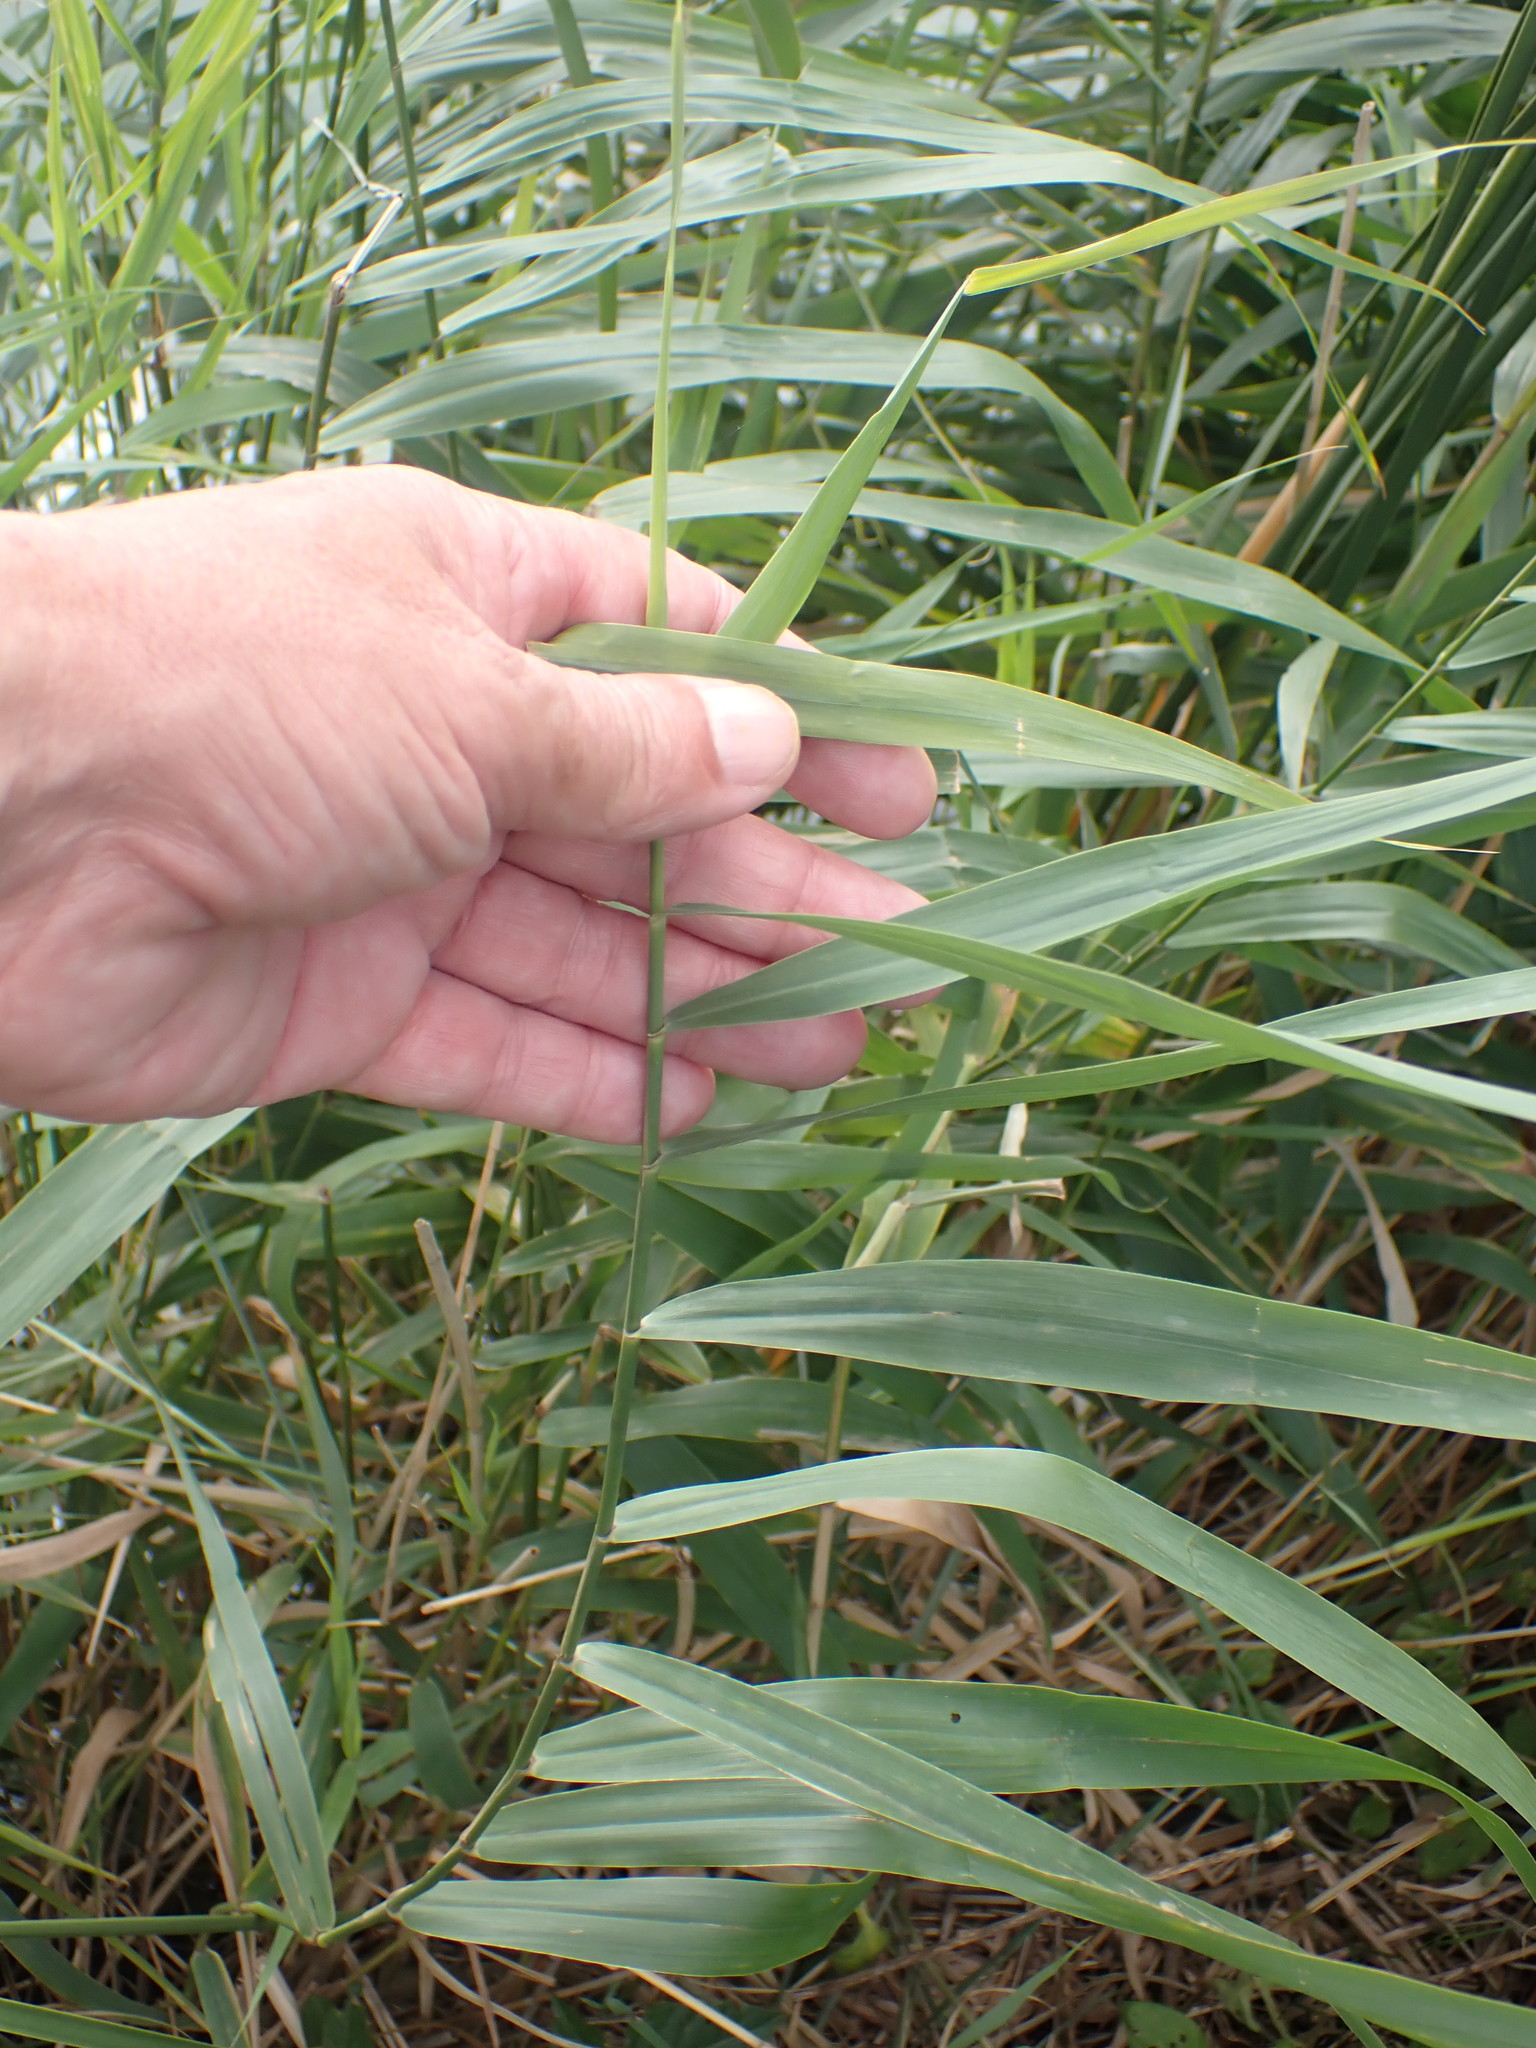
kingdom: Plantae
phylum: Tracheophyta
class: Liliopsida
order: Poales
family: Poaceae
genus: Phragmites
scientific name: Phragmites australis
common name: Common reed
